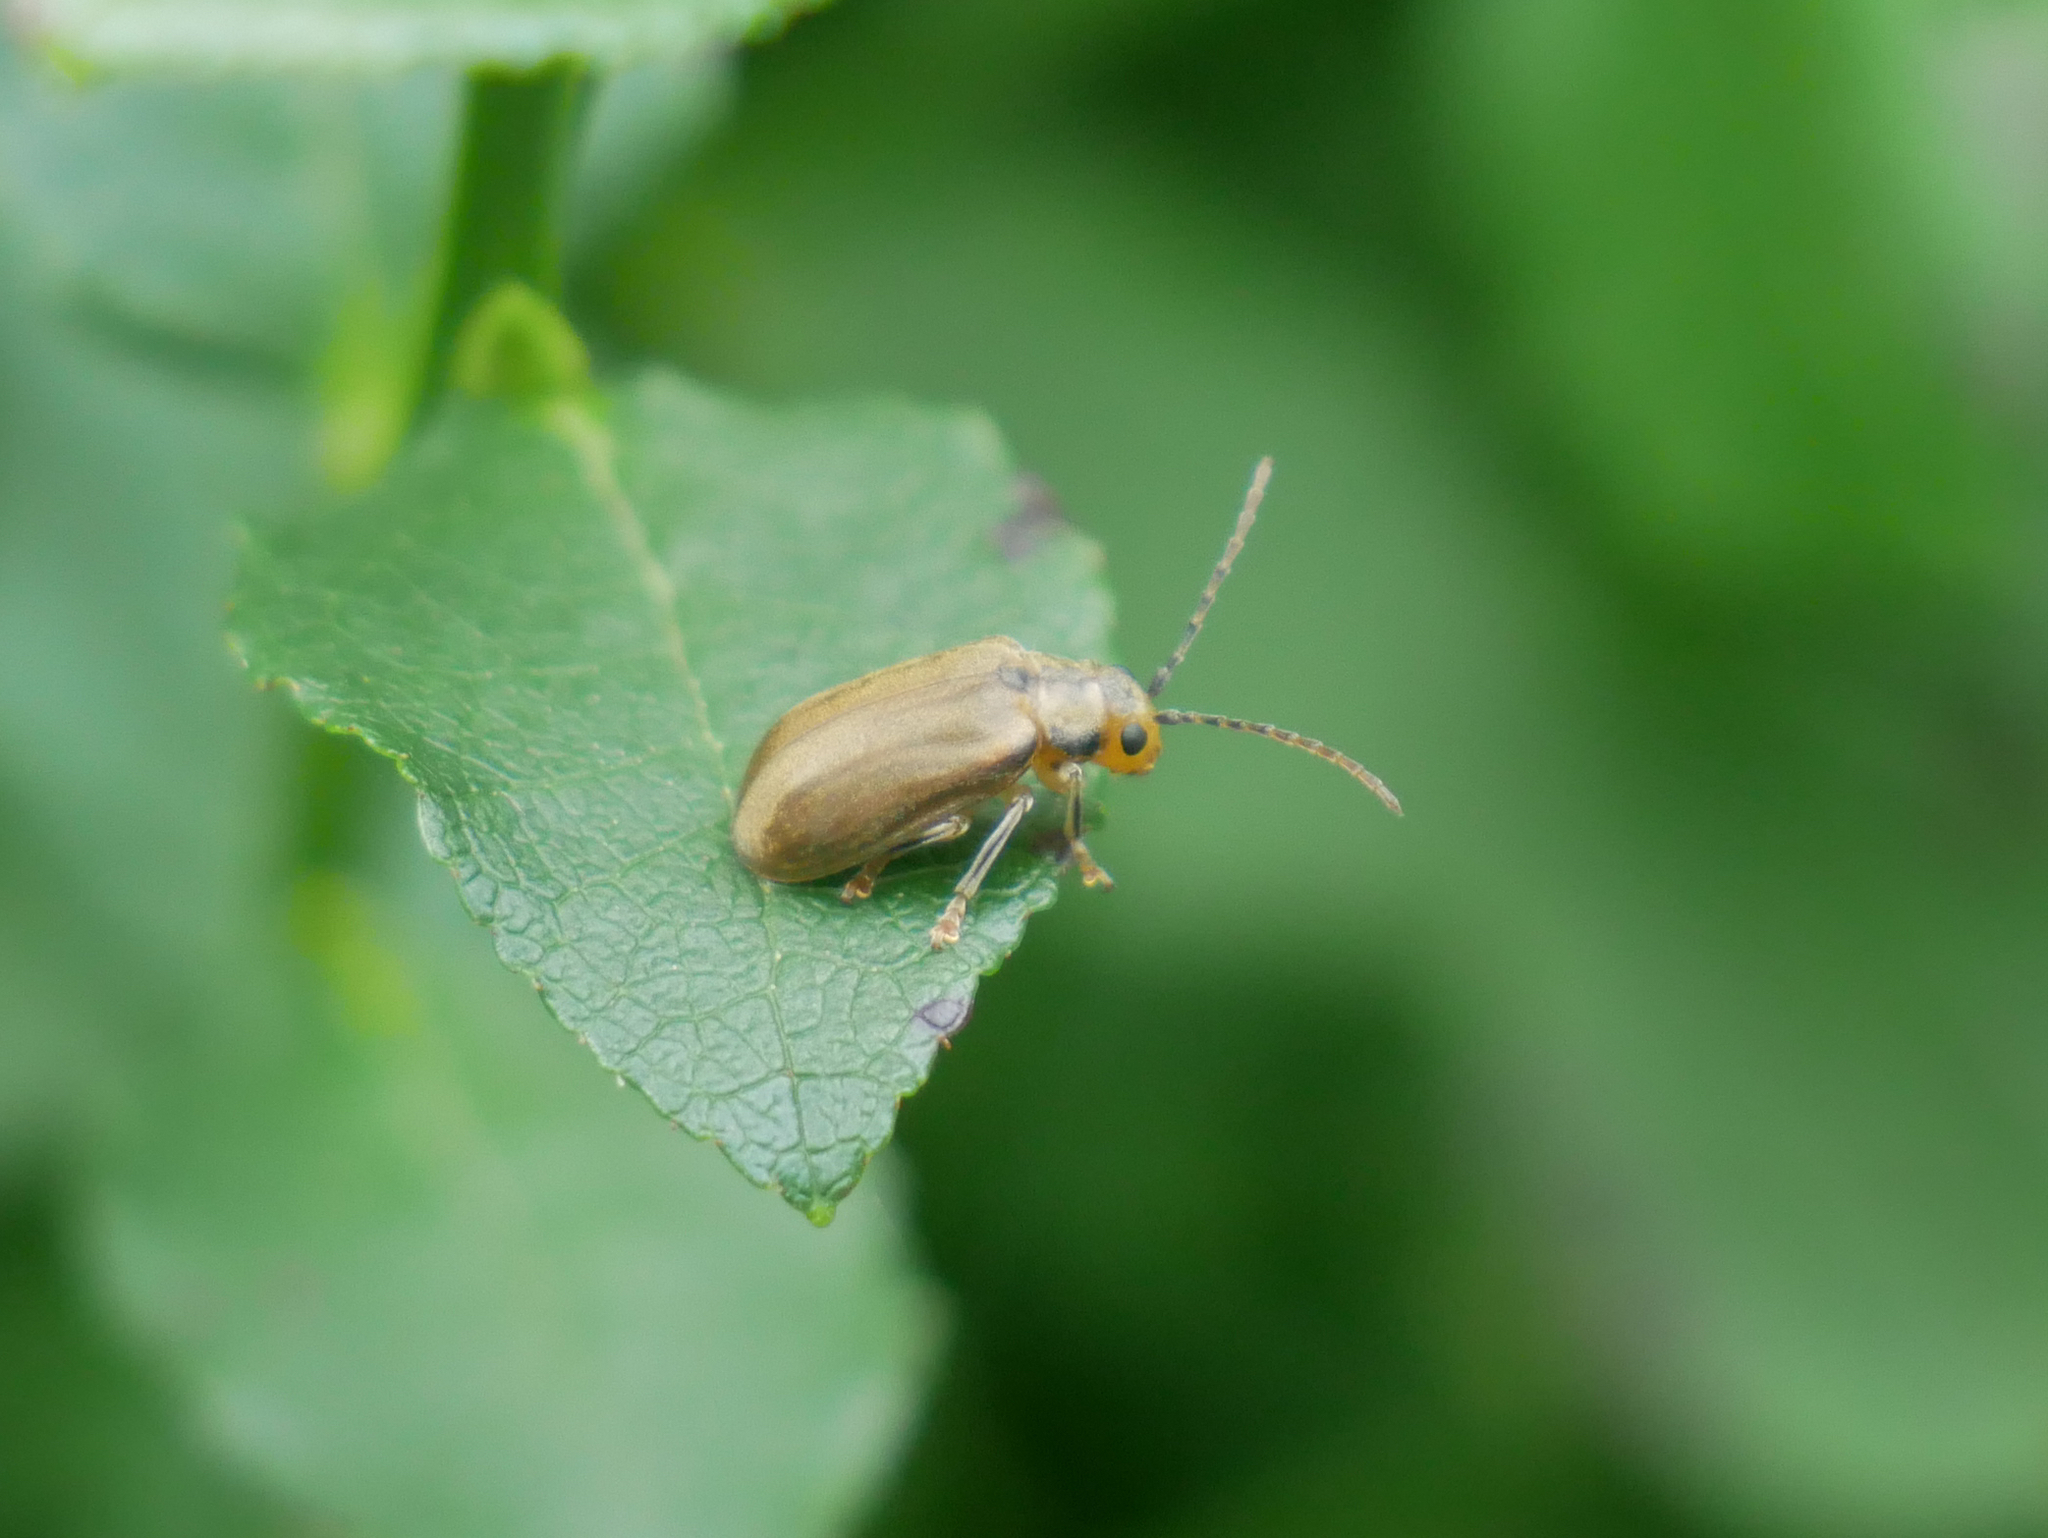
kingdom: Animalia
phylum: Arthropoda
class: Insecta
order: Coleoptera
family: Chrysomelidae
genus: Pyrrhalta
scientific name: Pyrrhalta viburni
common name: Guelder-rose leaf beetle
